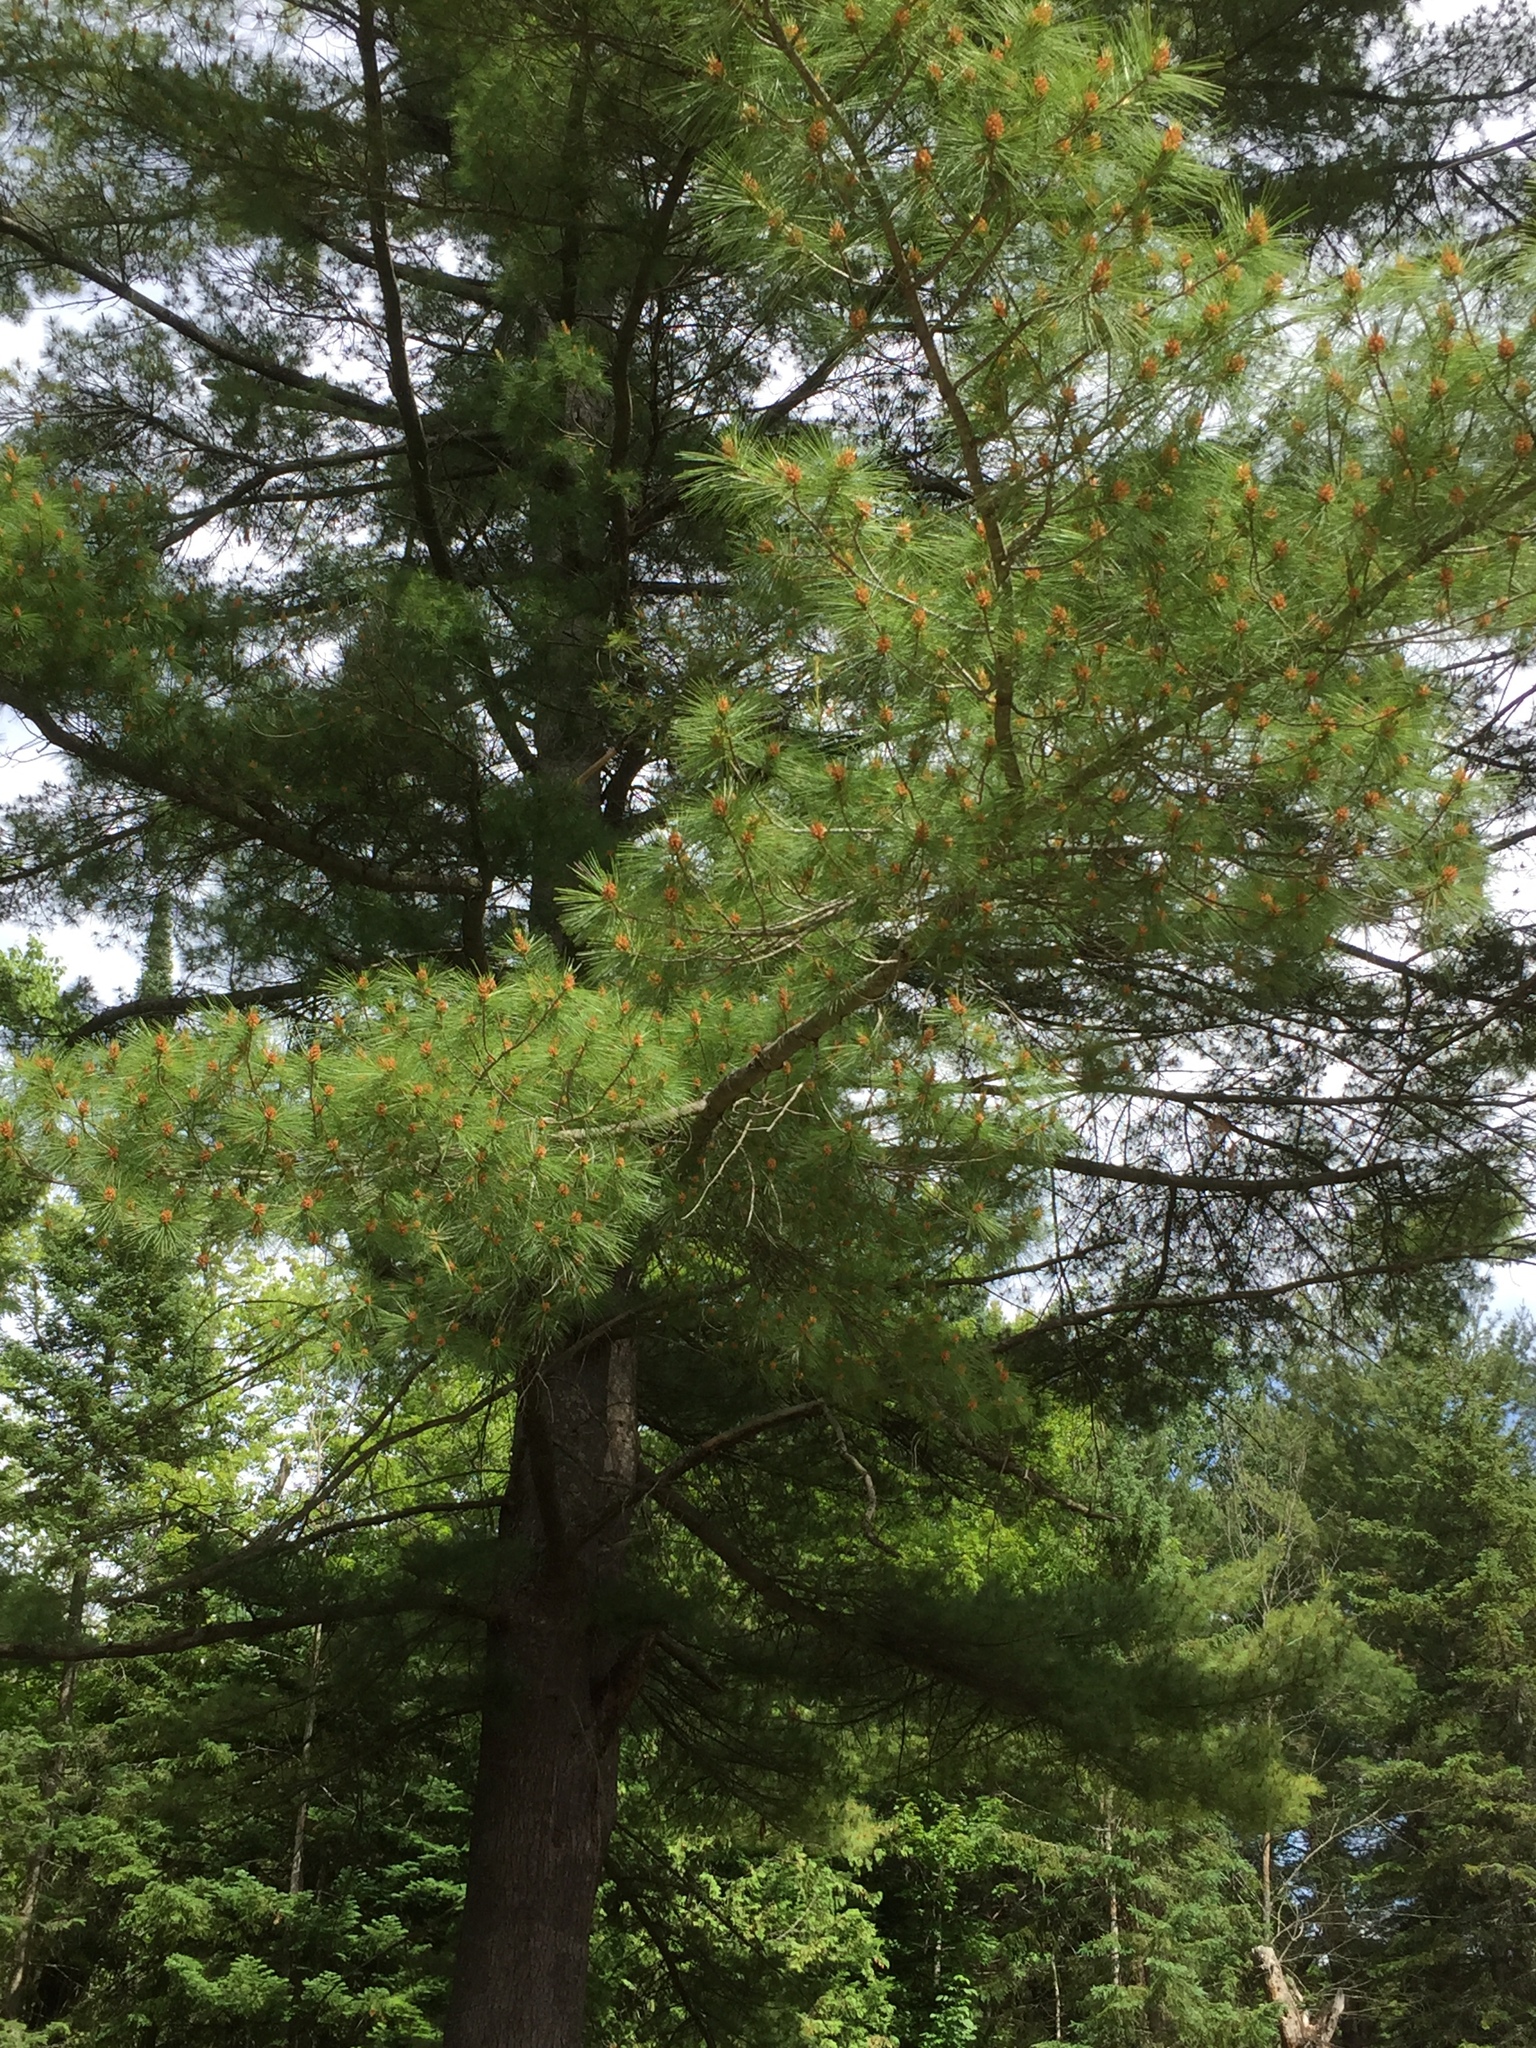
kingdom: Plantae
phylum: Tracheophyta
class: Pinopsida
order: Pinales
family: Pinaceae
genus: Pinus
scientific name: Pinus strobus
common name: Weymouth pine
